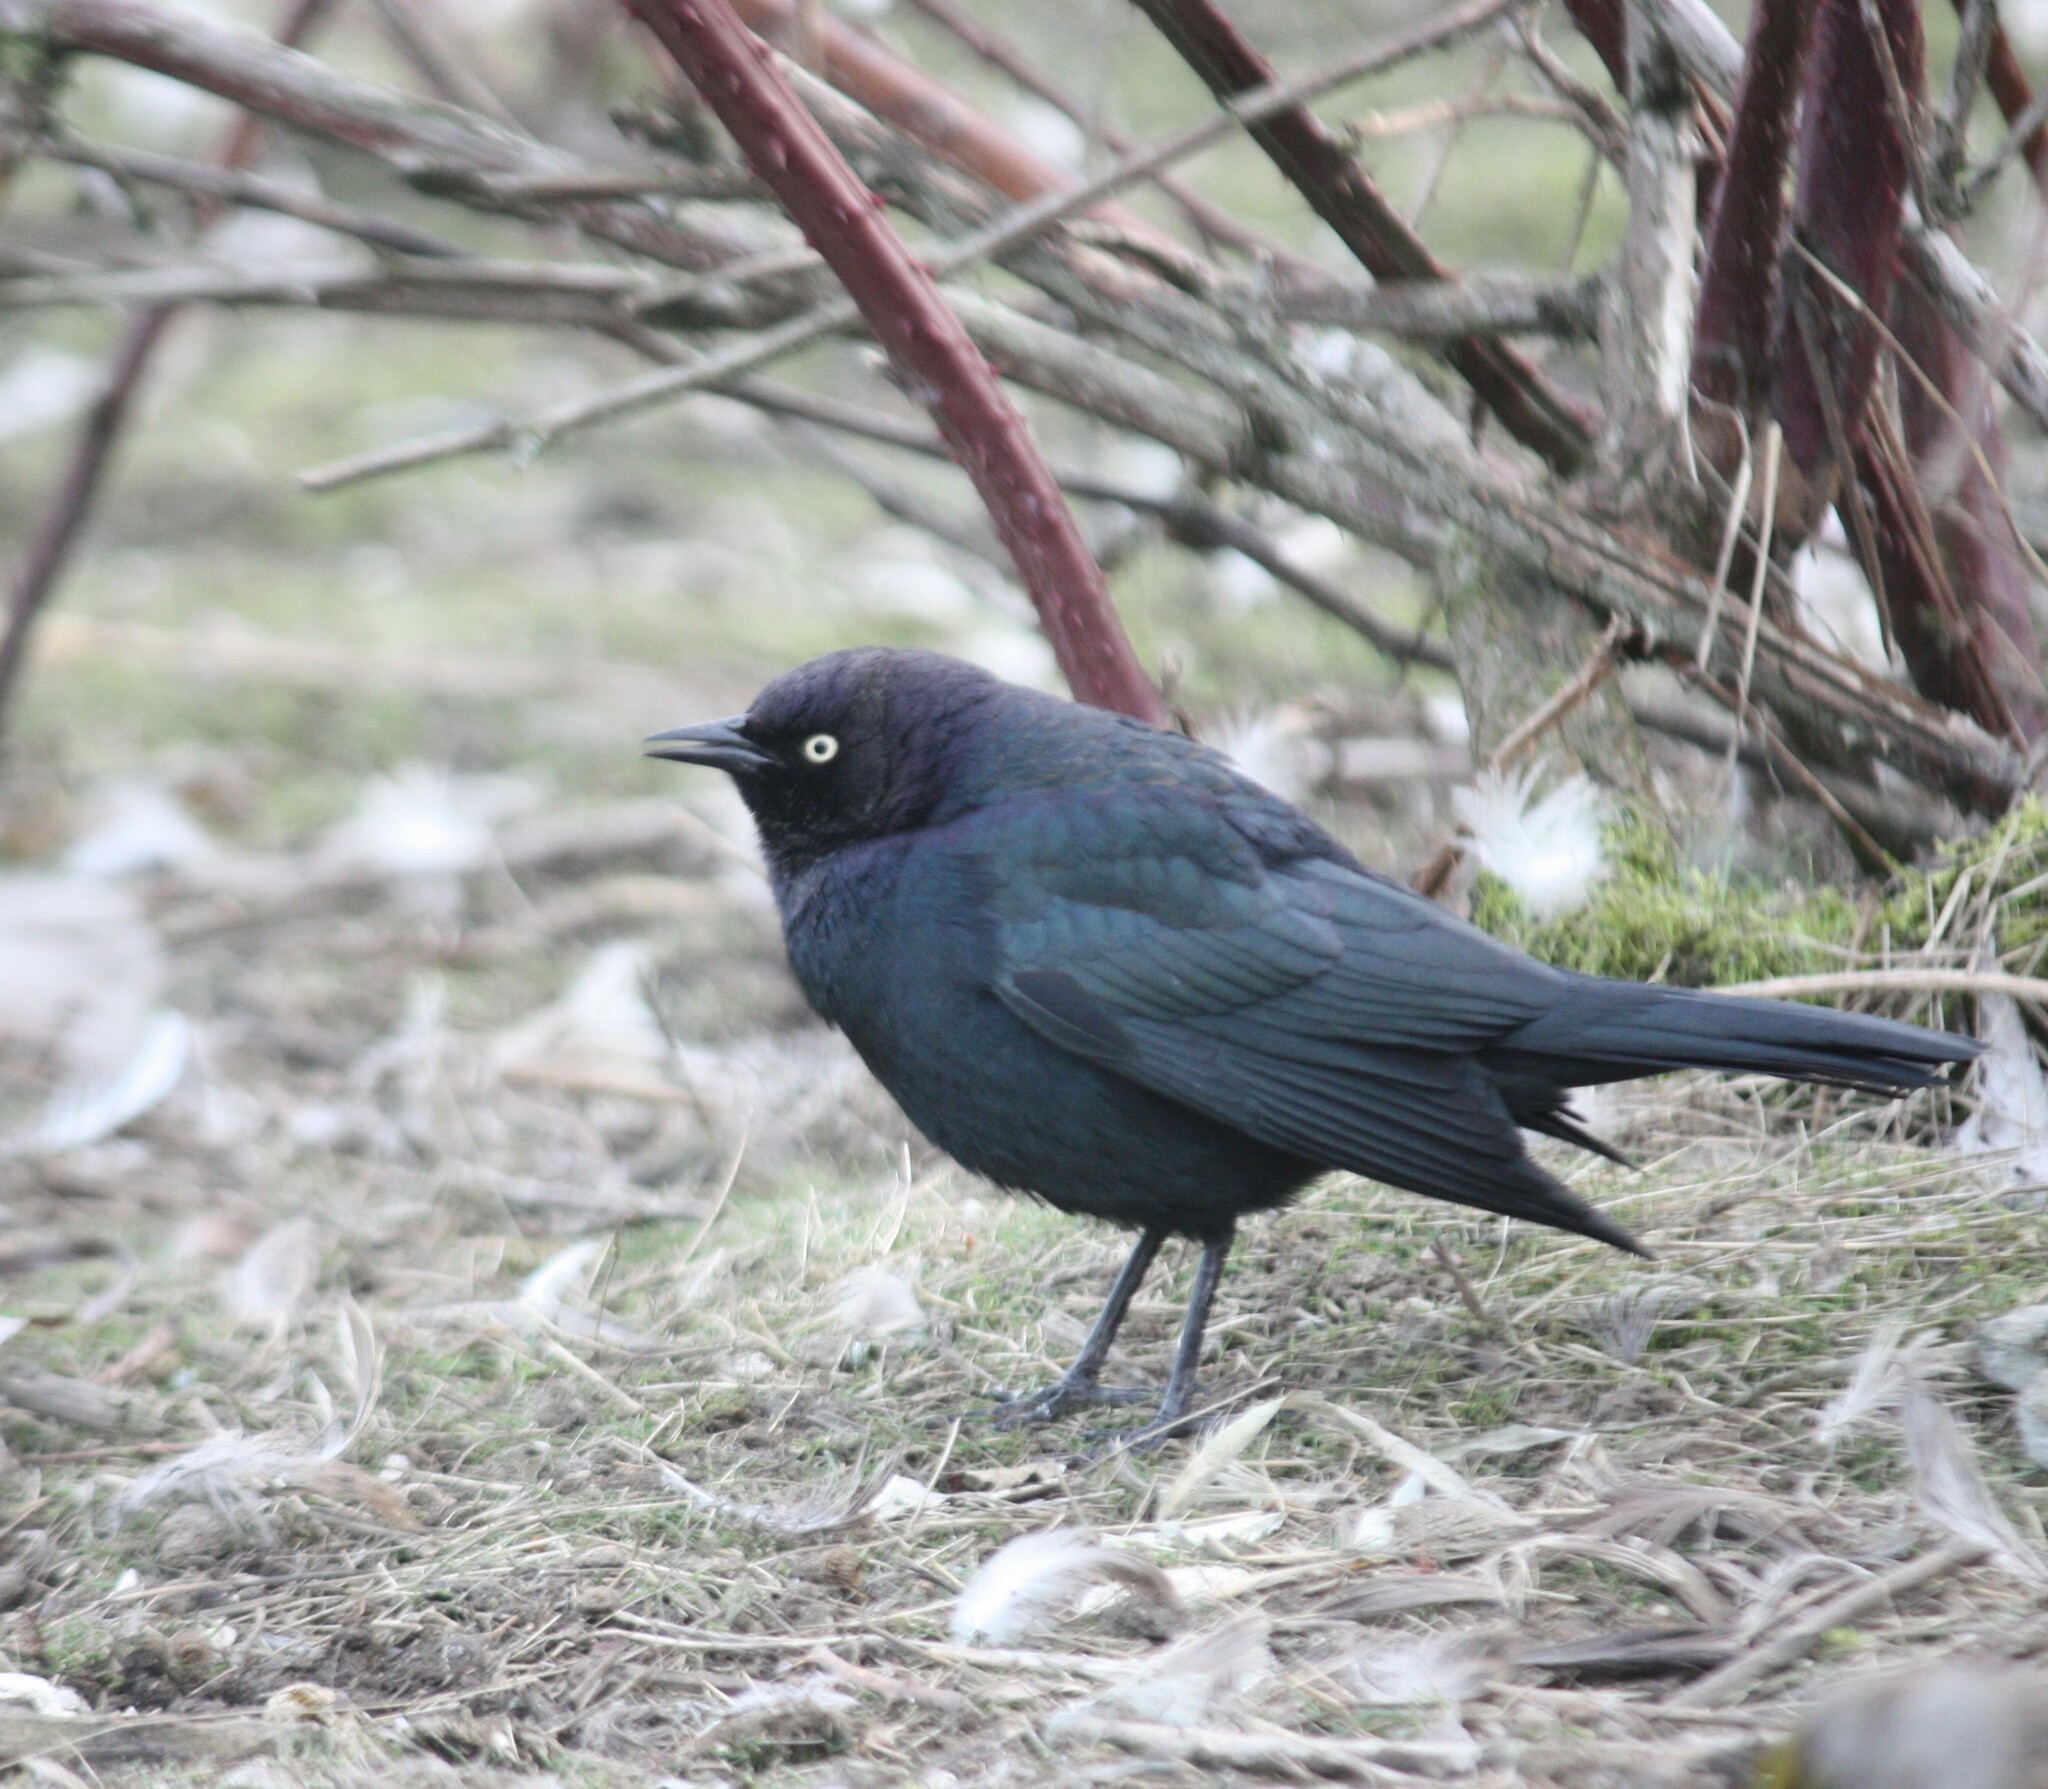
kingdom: Animalia
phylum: Chordata
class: Aves
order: Passeriformes
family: Icteridae
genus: Euphagus
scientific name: Euphagus cyanocephalus
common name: Brewer's blackbird
